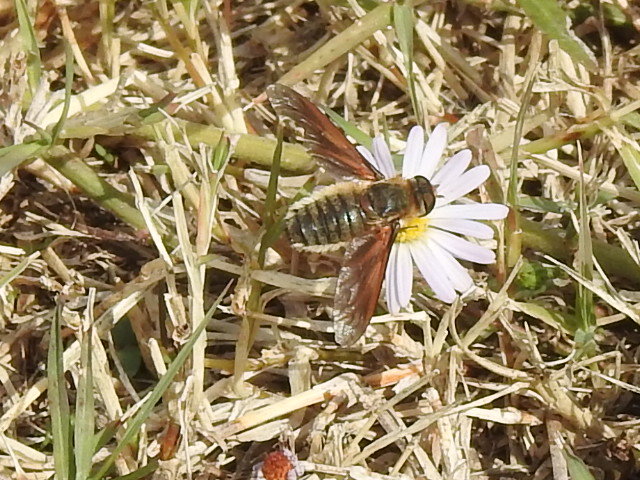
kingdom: Animalia
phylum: Arthropoda
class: Insecta
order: Diptera
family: Bombyliidae
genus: Poecilanthrax
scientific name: Poecilanthrax lucifer
